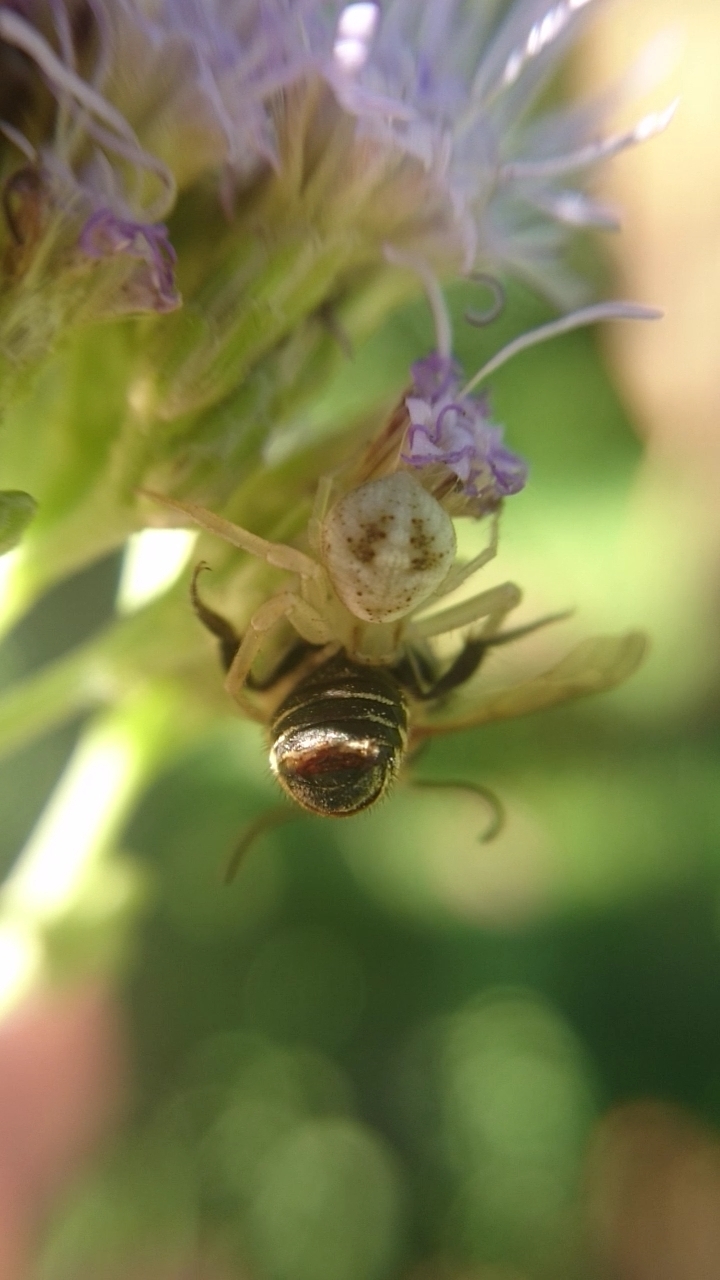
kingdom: Animalia
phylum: Arthropoda
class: Arachnida
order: Araneae
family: Thomisidae
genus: Misumenops
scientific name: Misumenops
